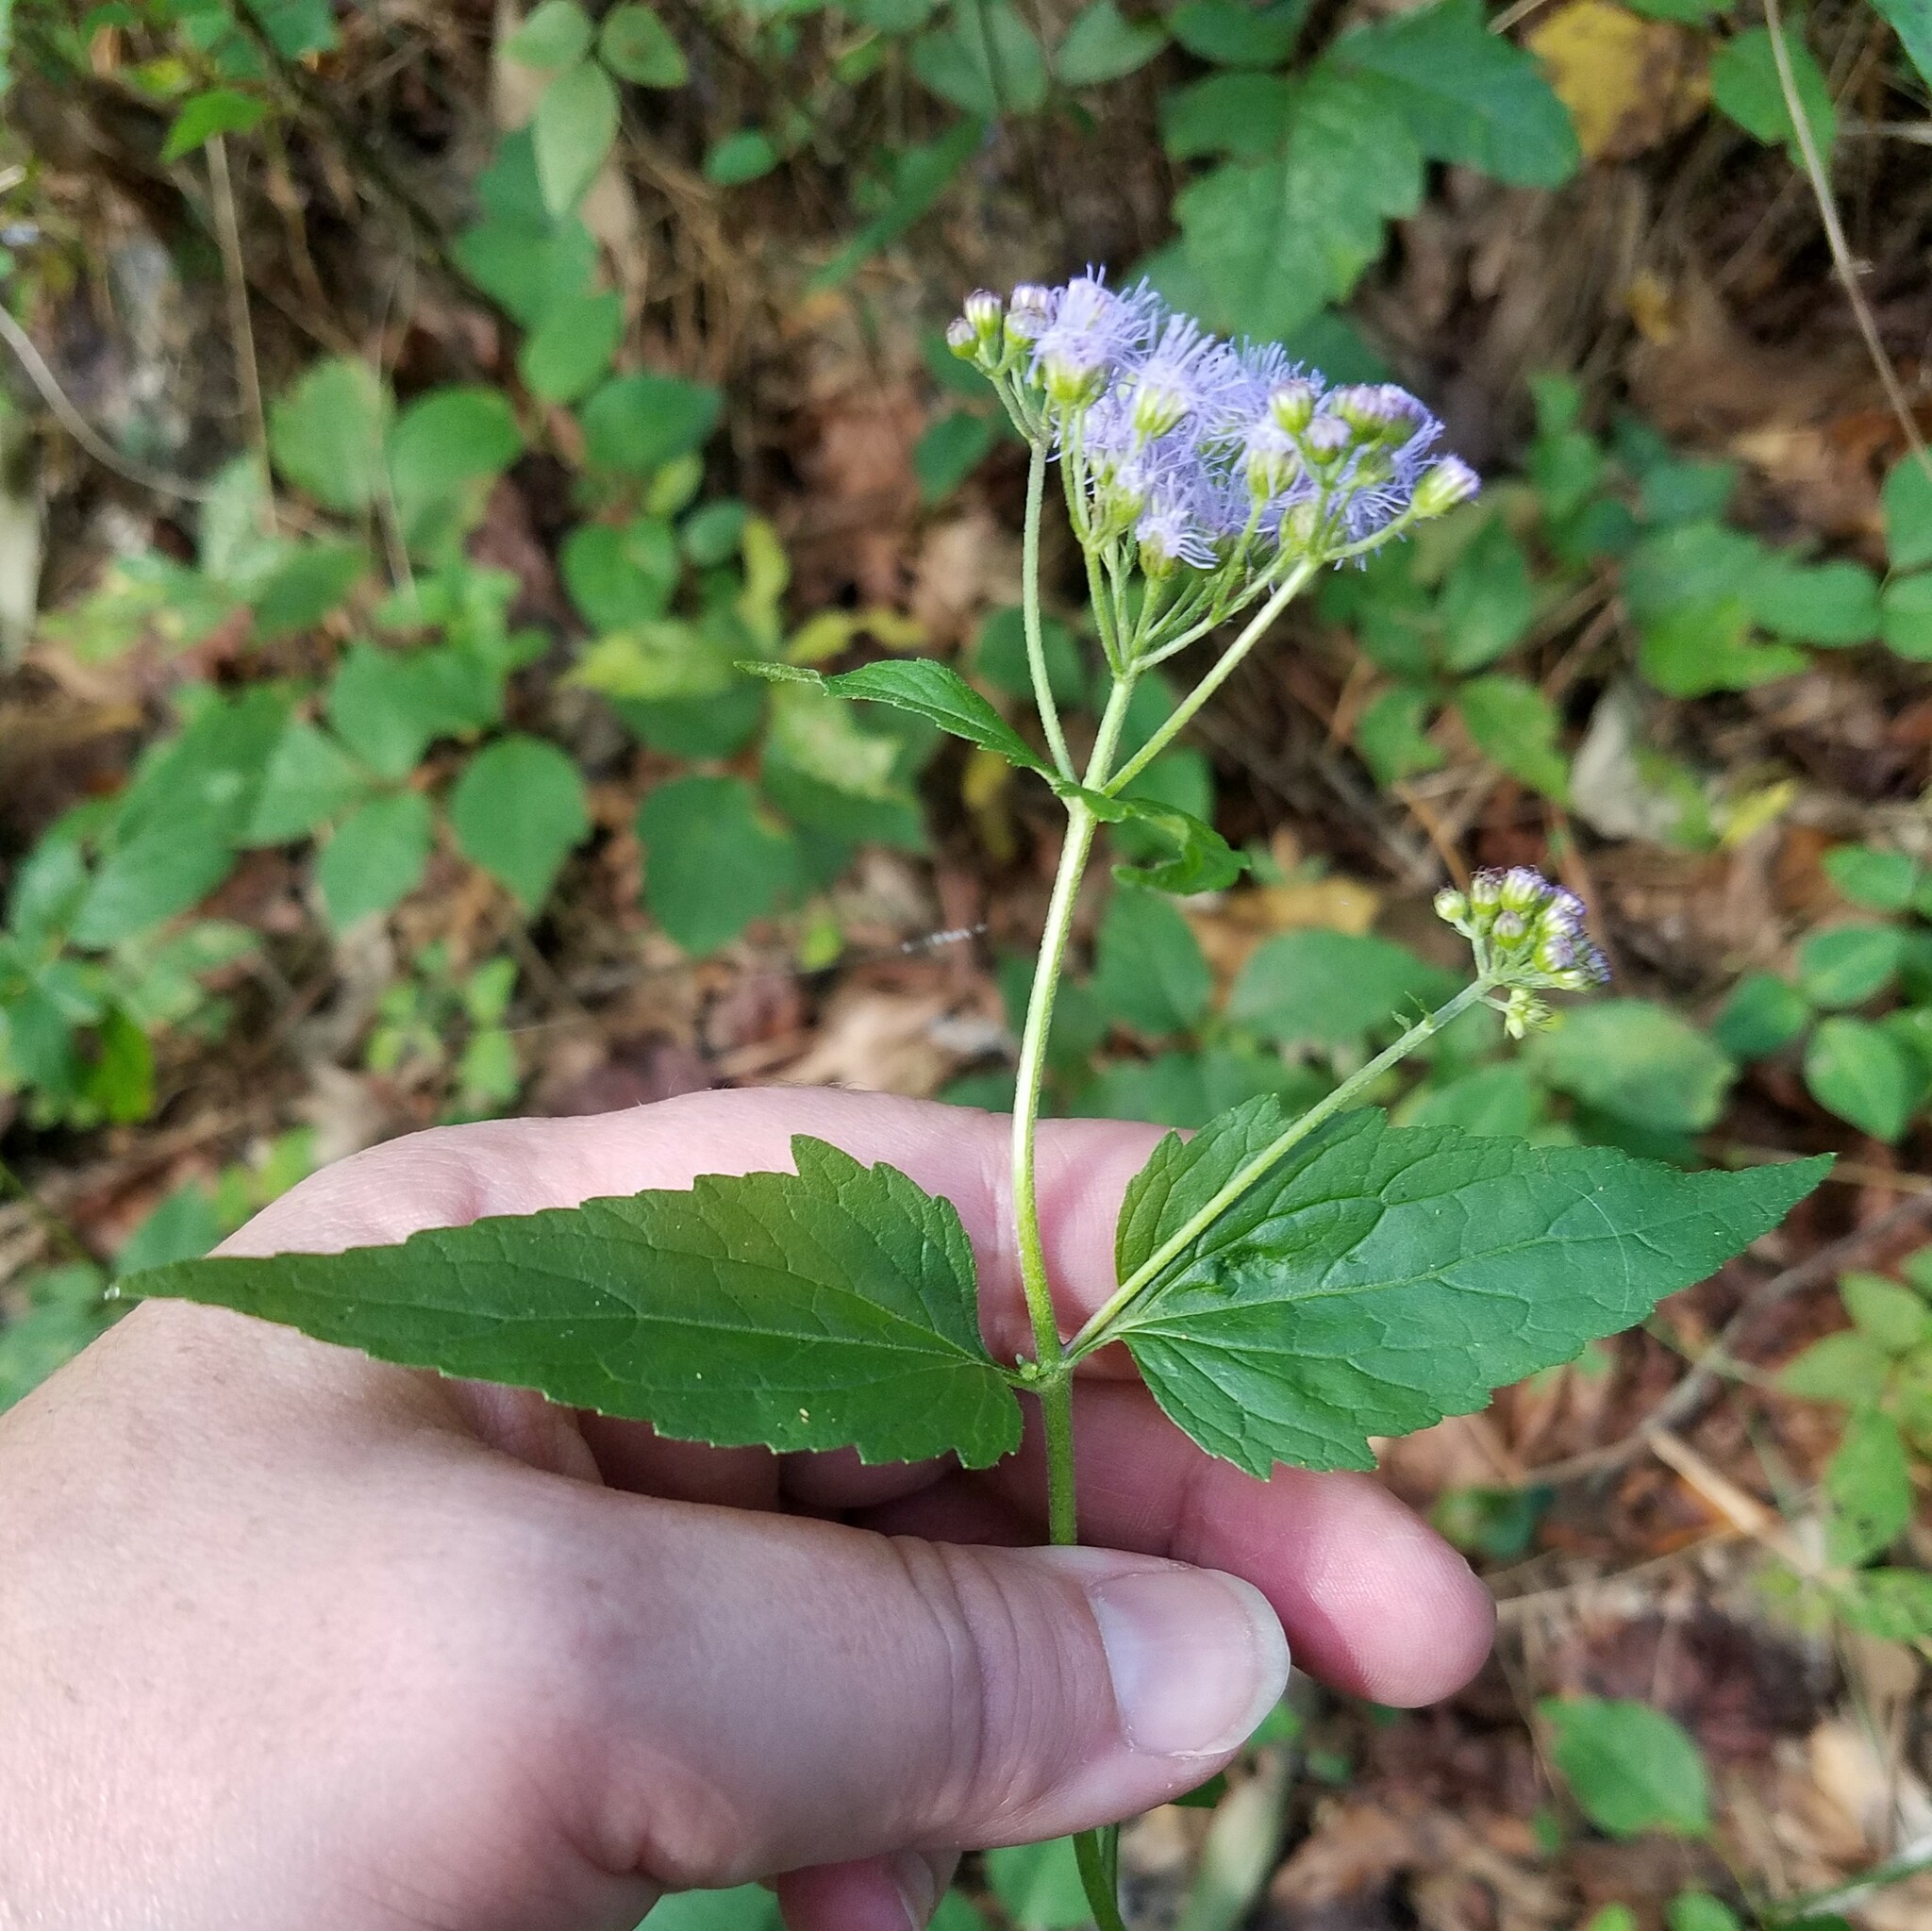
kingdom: Plantae
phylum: Tracheophyta
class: Magnoliopsida
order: Asterales
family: Asteraceae
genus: Conoclinium
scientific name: Conoclinium coelestinum
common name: Blue mistflower
